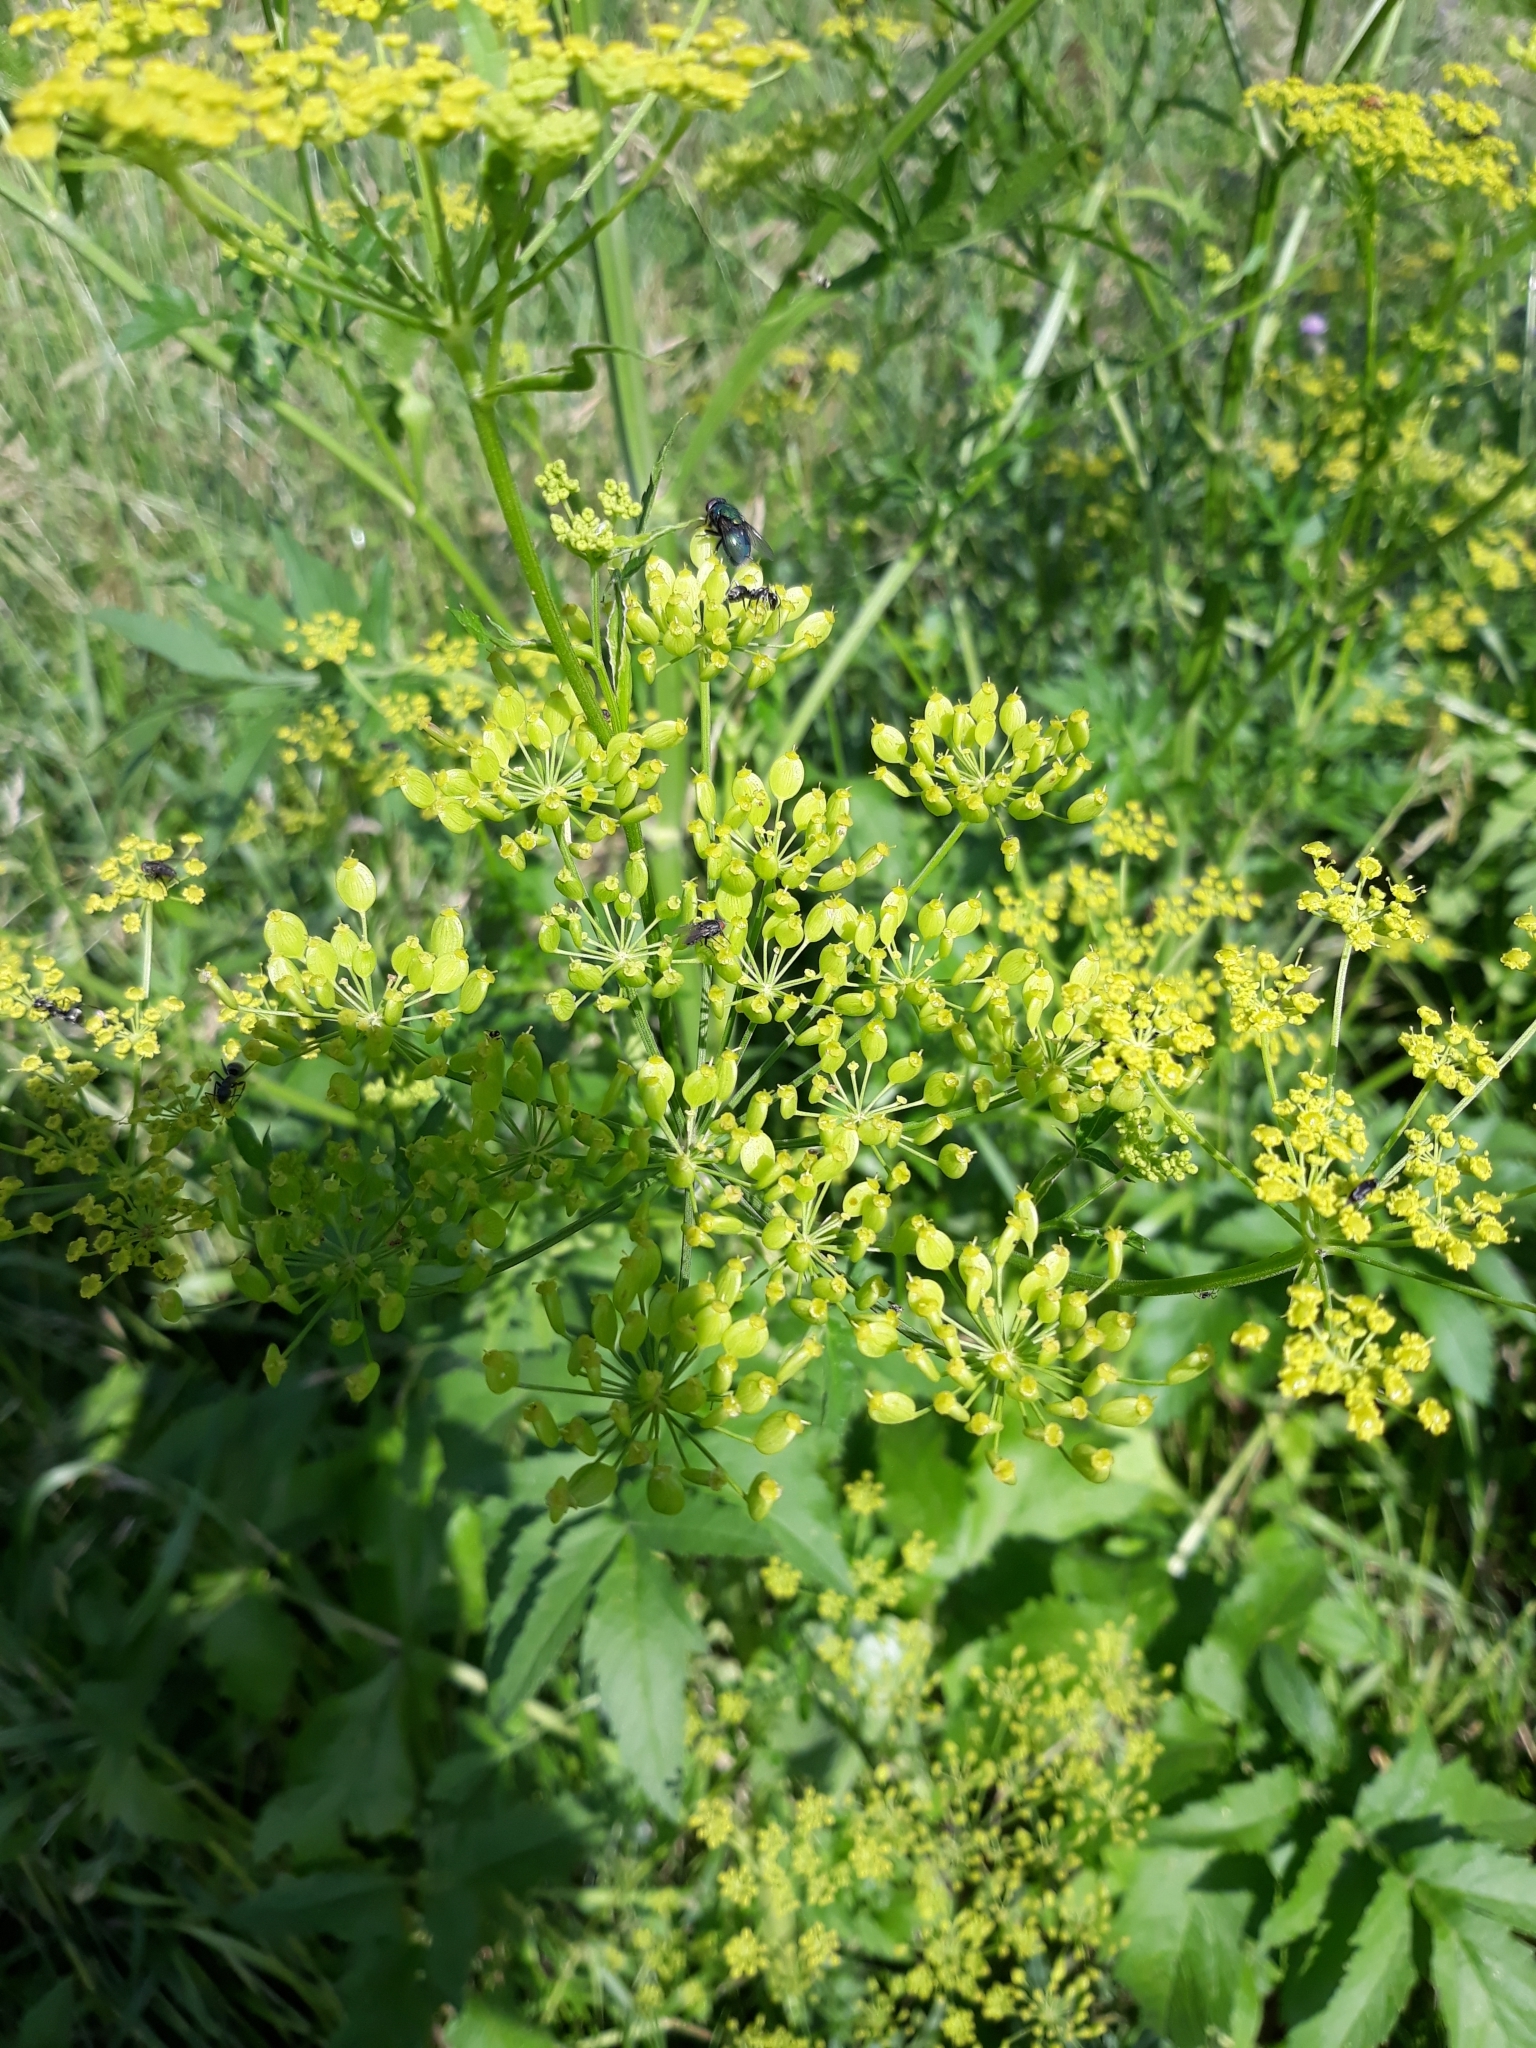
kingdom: Plantae
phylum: Tracheophyta
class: Magnoliopsida
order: Apiales
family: Apiaceae
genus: Pastinaca
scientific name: Pastinaca sativa
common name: Wild parsnip
